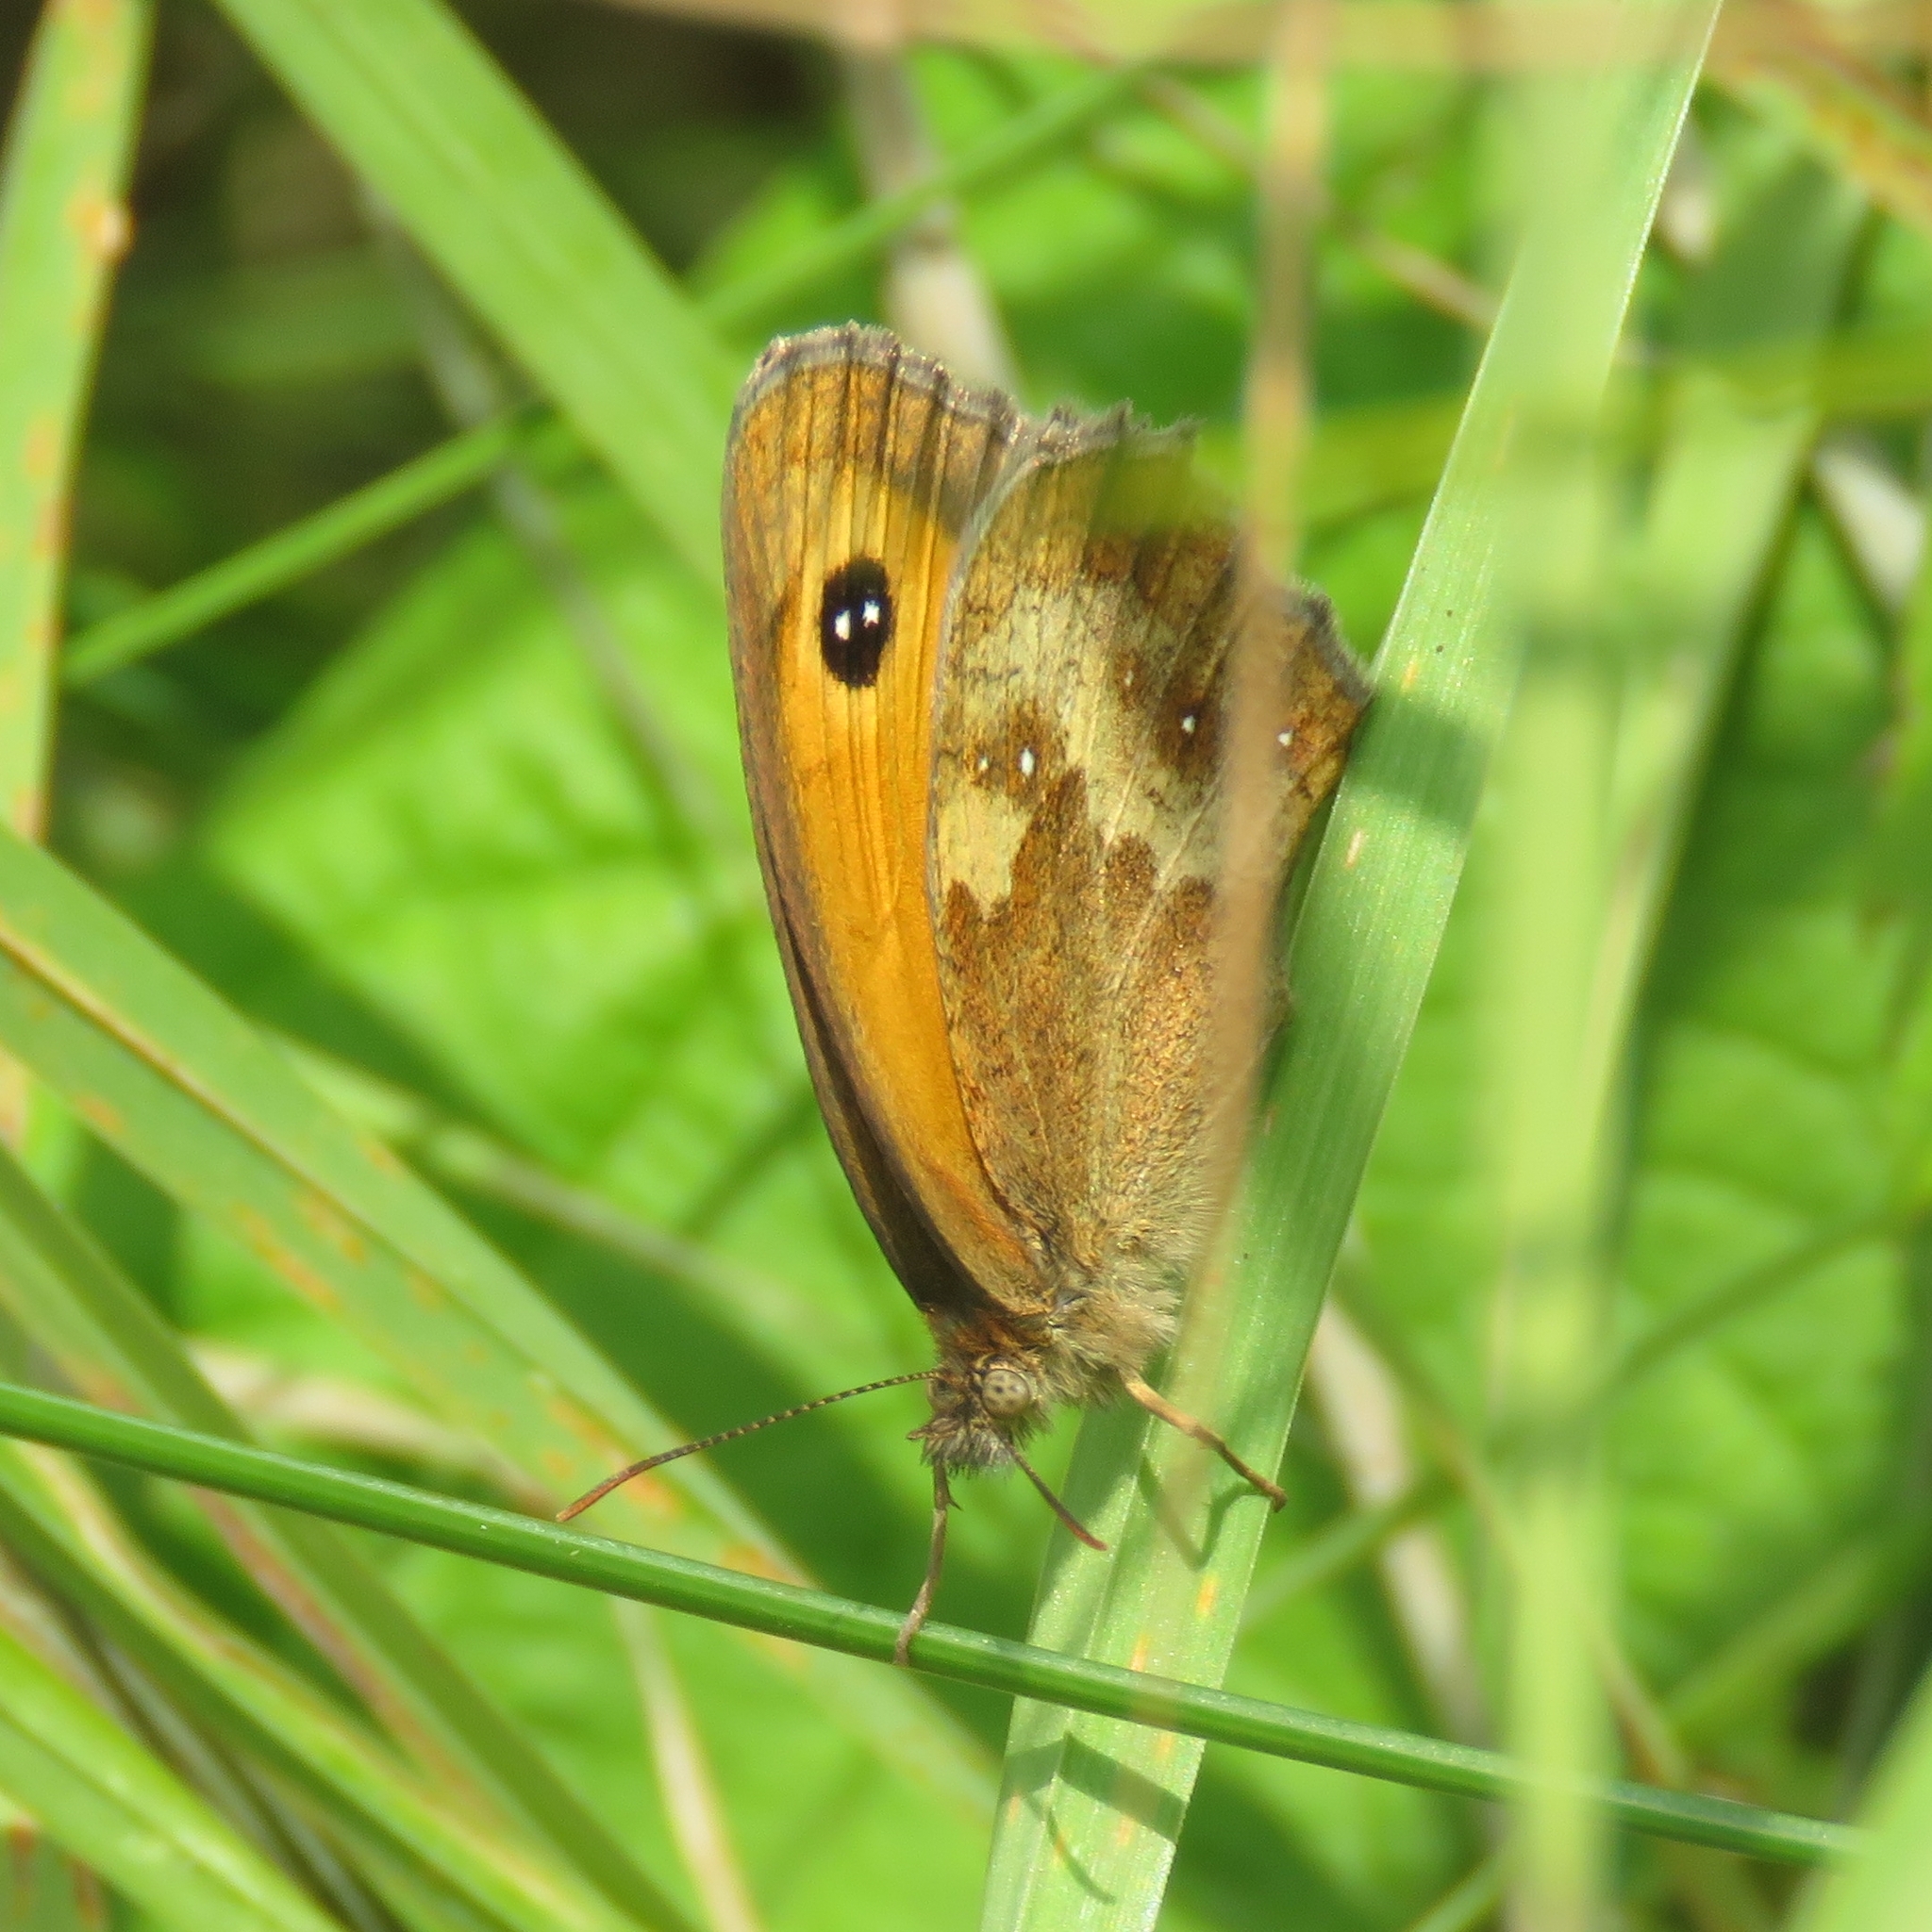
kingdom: Animalia
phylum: Arthropoda
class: Insecta
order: Lepidoptera
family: Nymphalidae
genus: Pyronia
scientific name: Pyronia tithonus
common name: Gatekeeper
